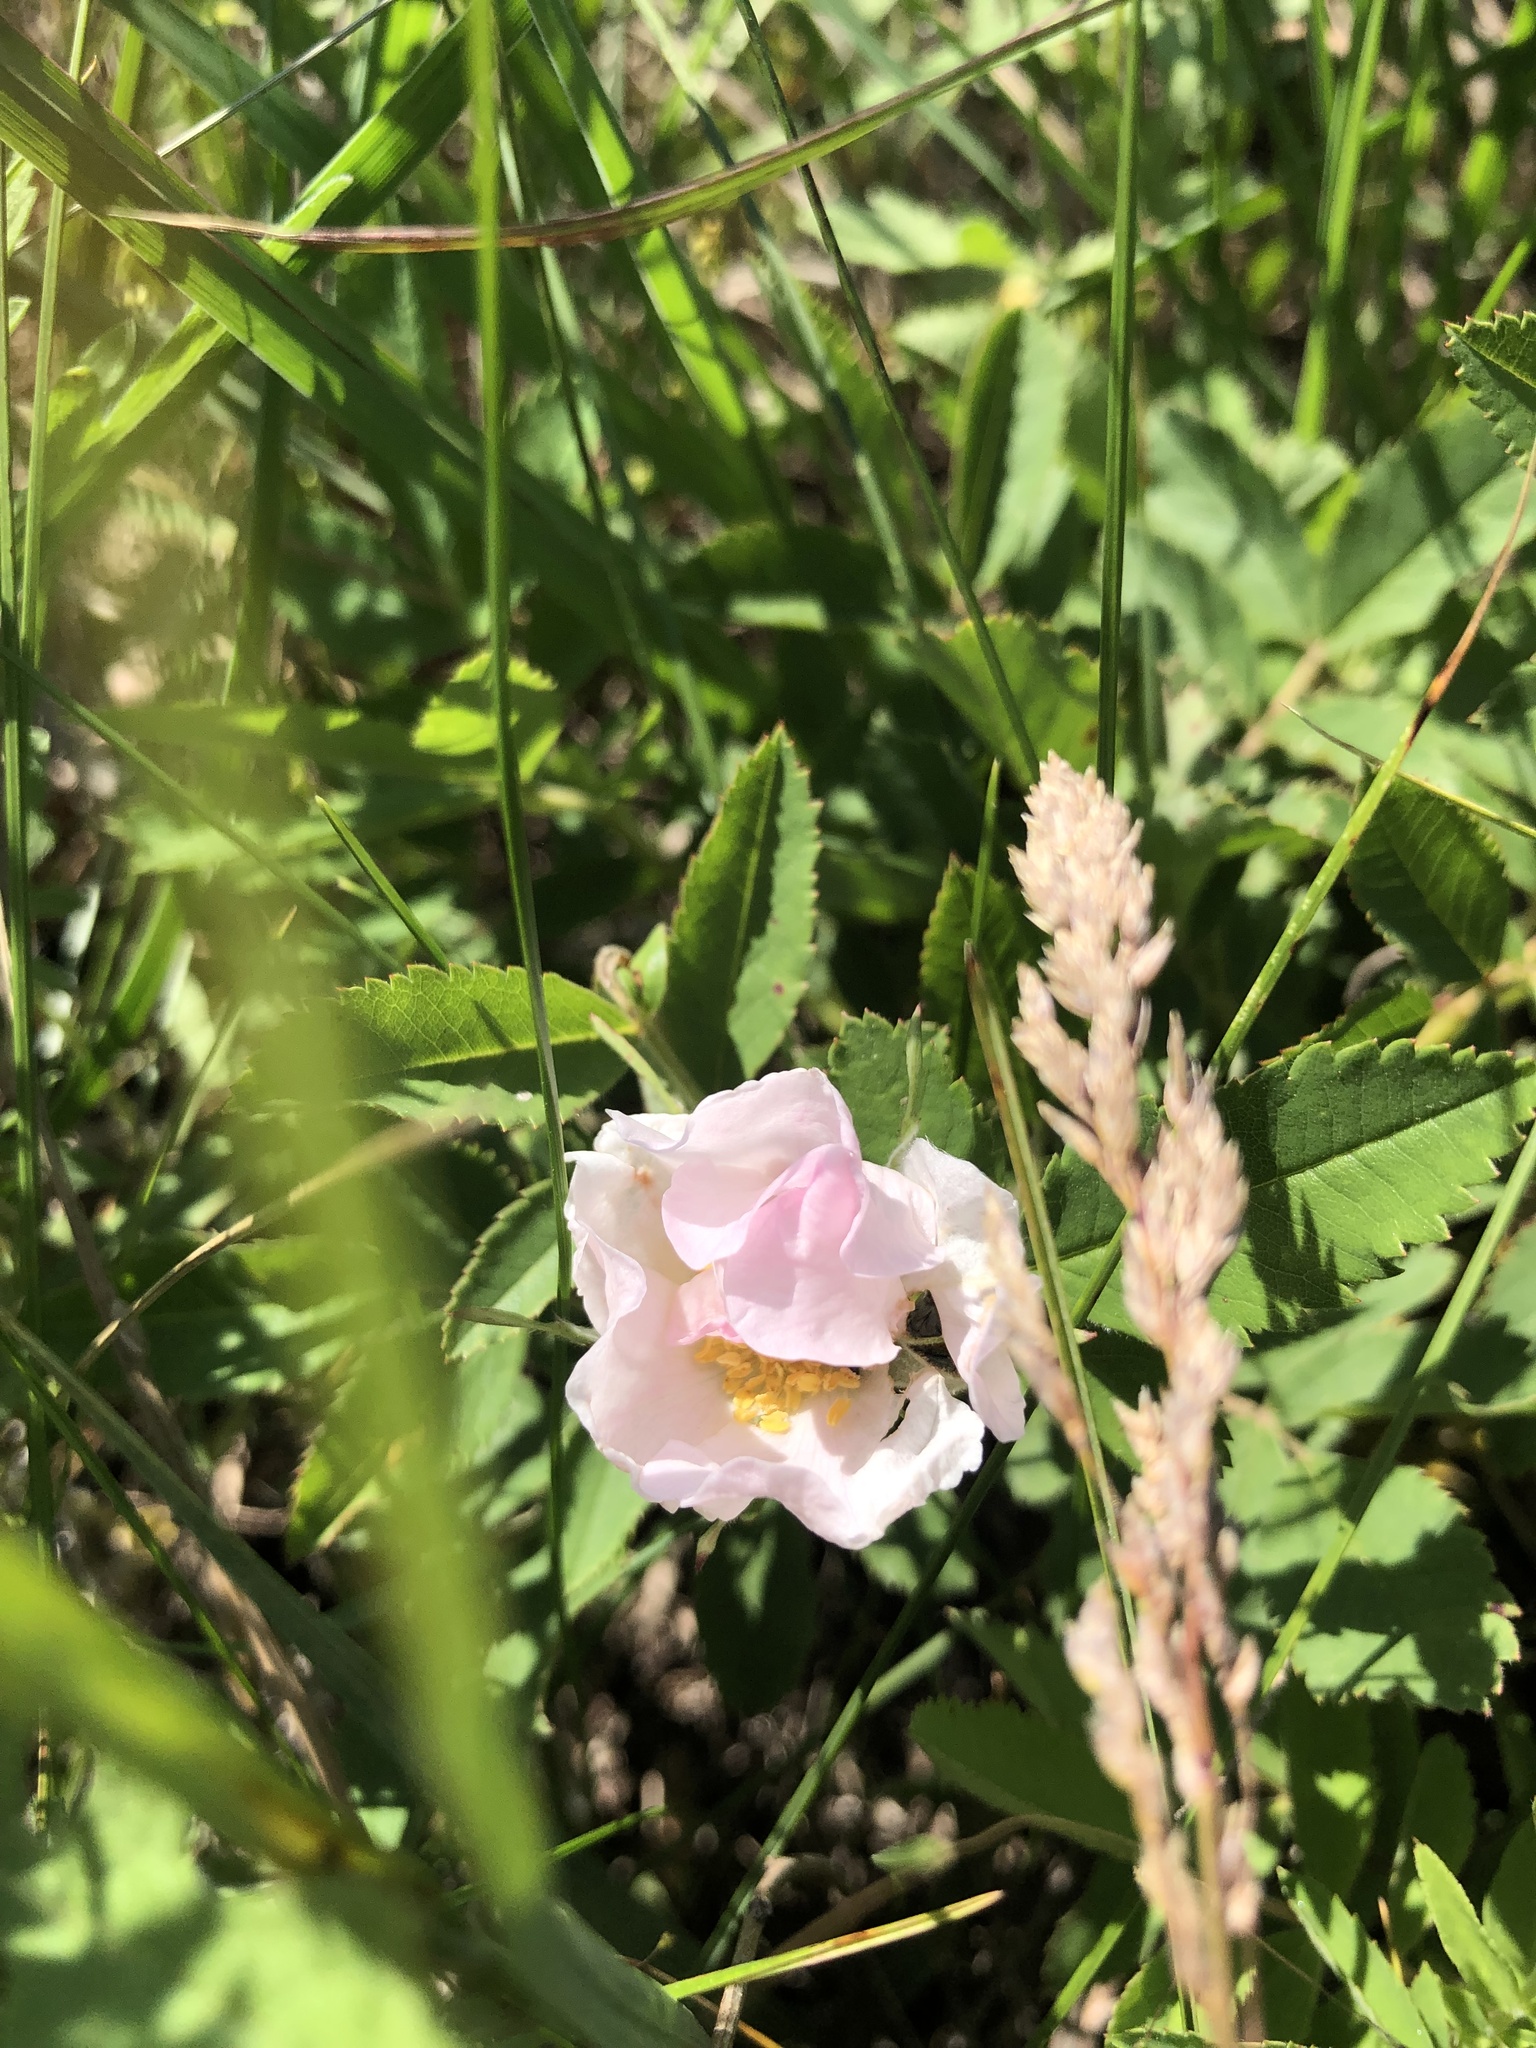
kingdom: Plantae
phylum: Tracheophyta
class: Magnoliopsida
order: Rosales
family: Rosaceae
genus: Rosa
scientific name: Rosa arkansana
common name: Prairie rose
